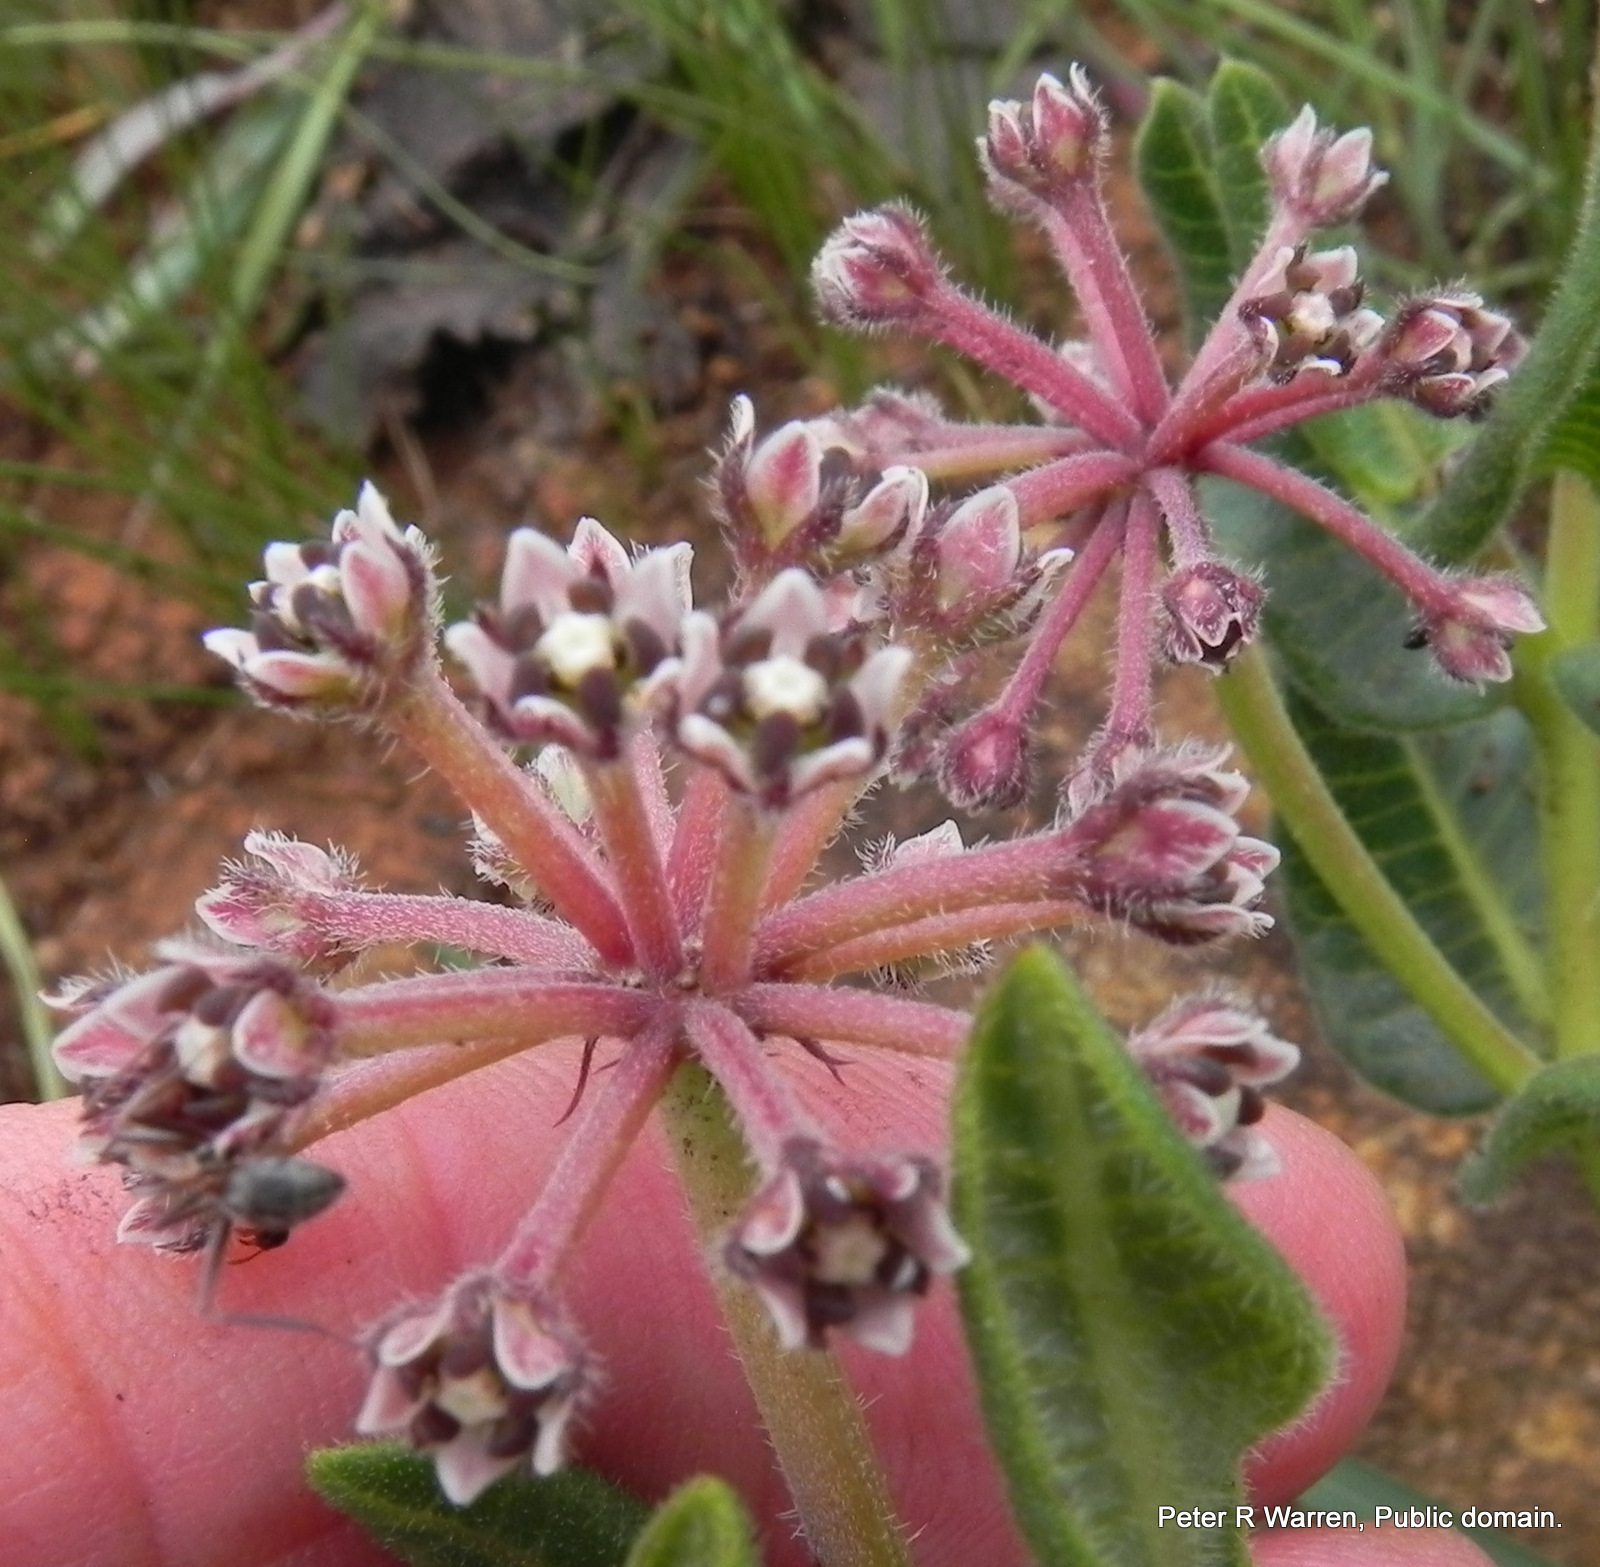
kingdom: Plantae
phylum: Tracheophyta
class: Magnoliopsida
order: Gentianales
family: Apocynaceae
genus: Xysmalobium
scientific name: Xysmalobium parviflorum
